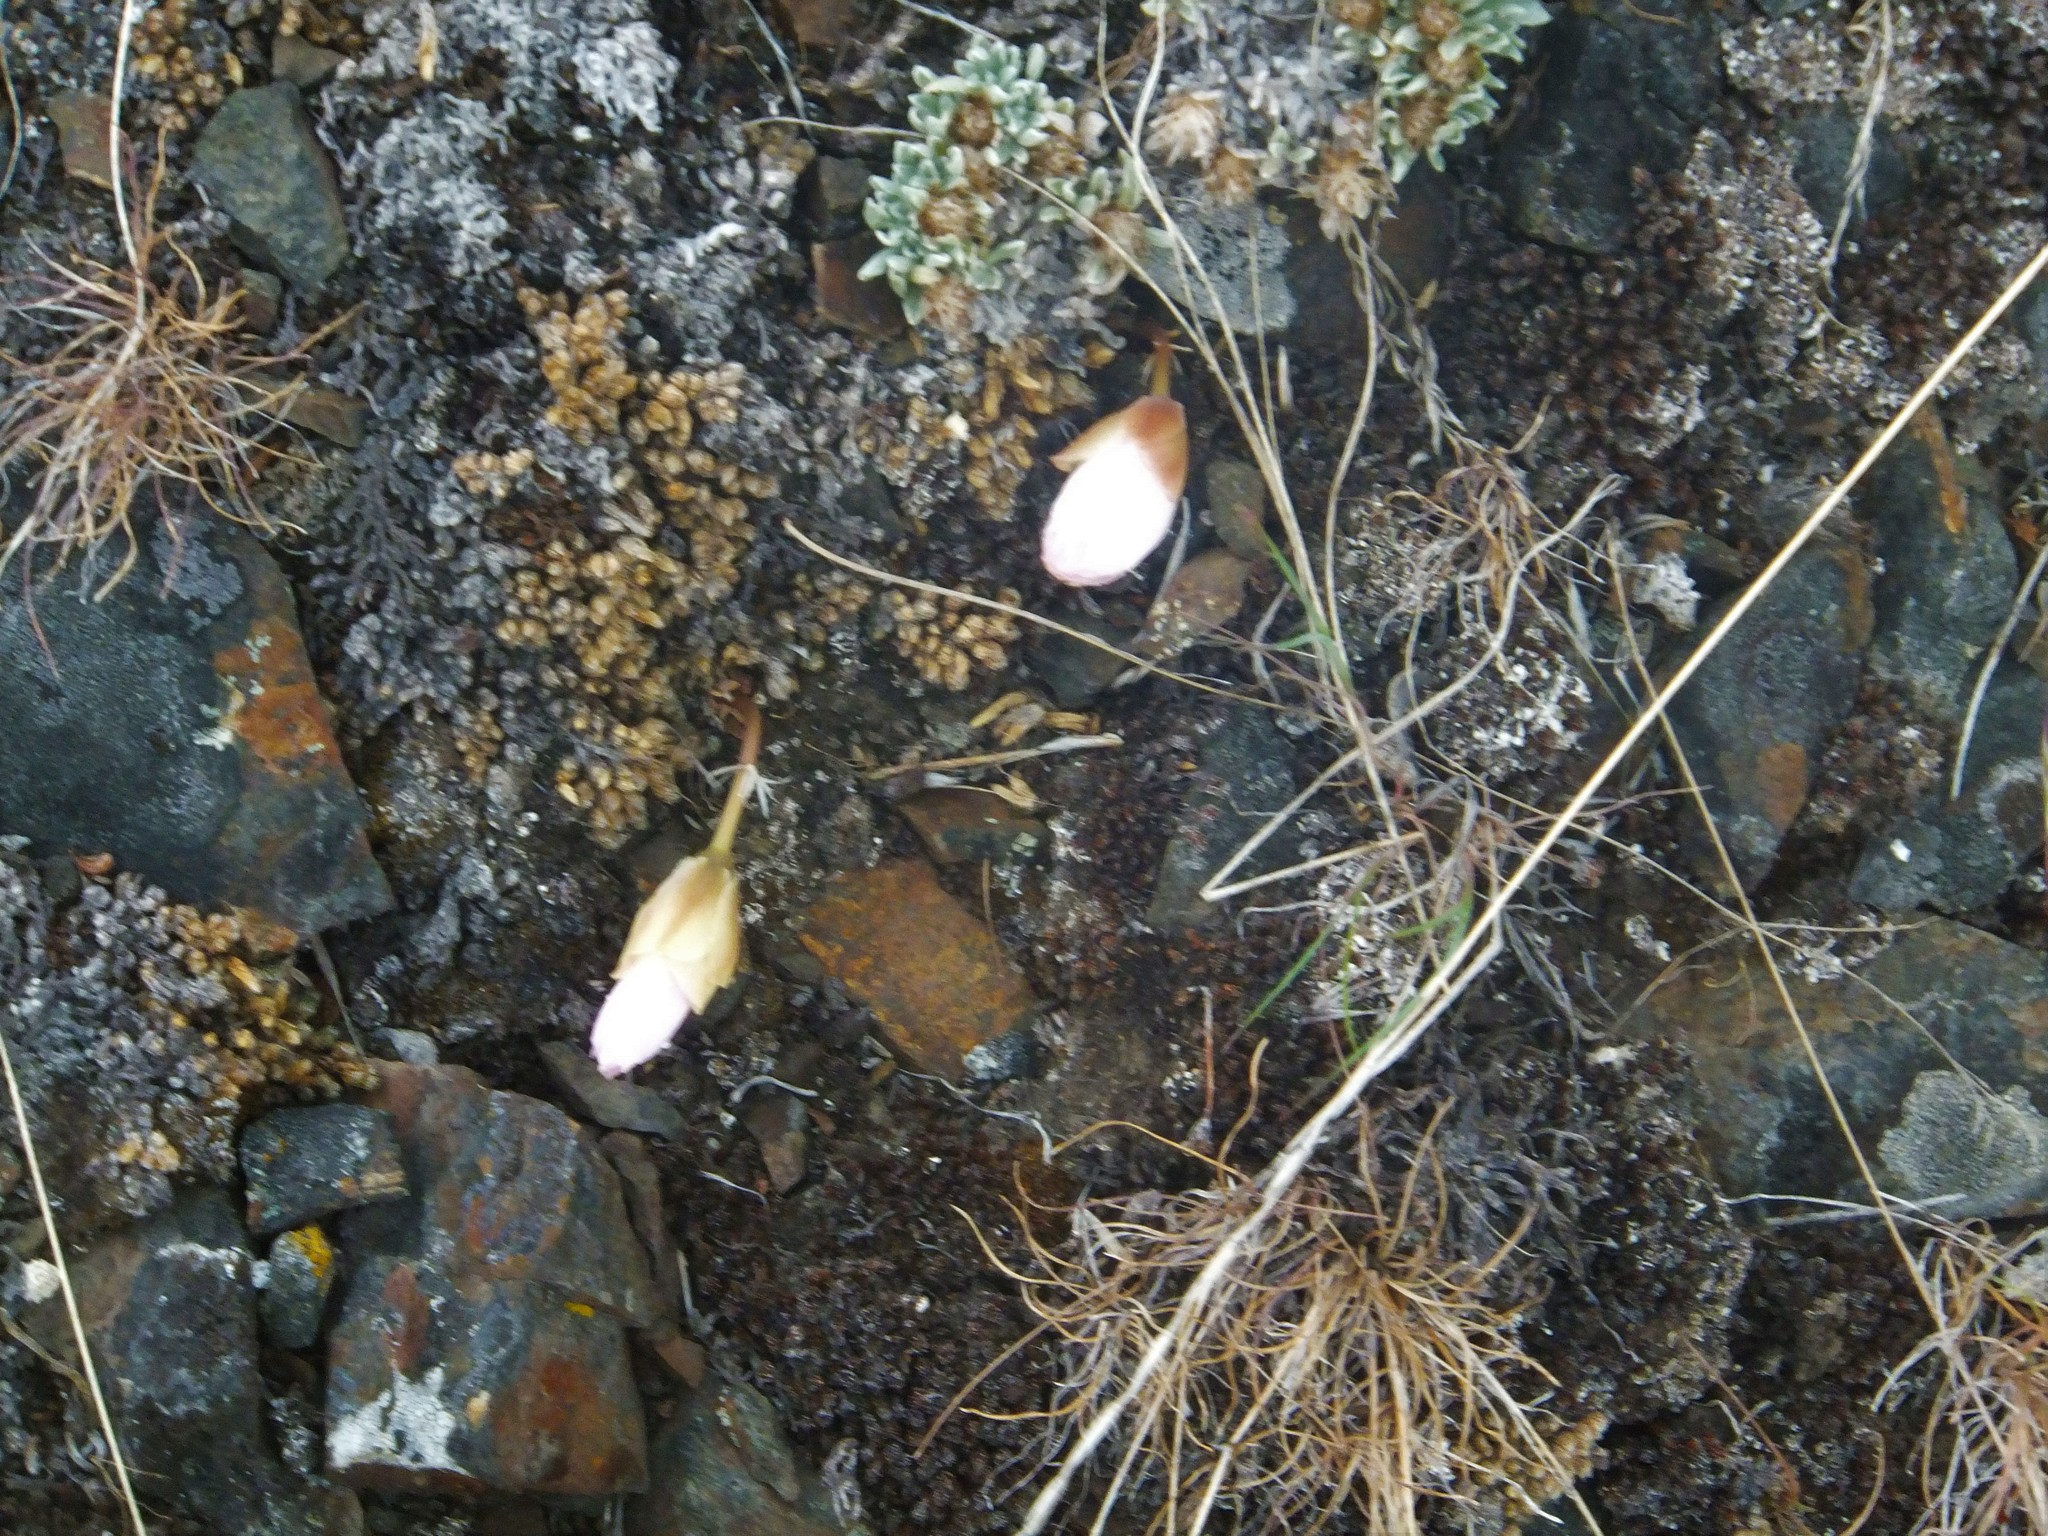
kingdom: Plantae
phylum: Tracheophyta
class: Magnoliopsida
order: Caryophyllales
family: Montiaceae
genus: Lewisia
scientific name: Lewisia rediviva
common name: Bitter-root
